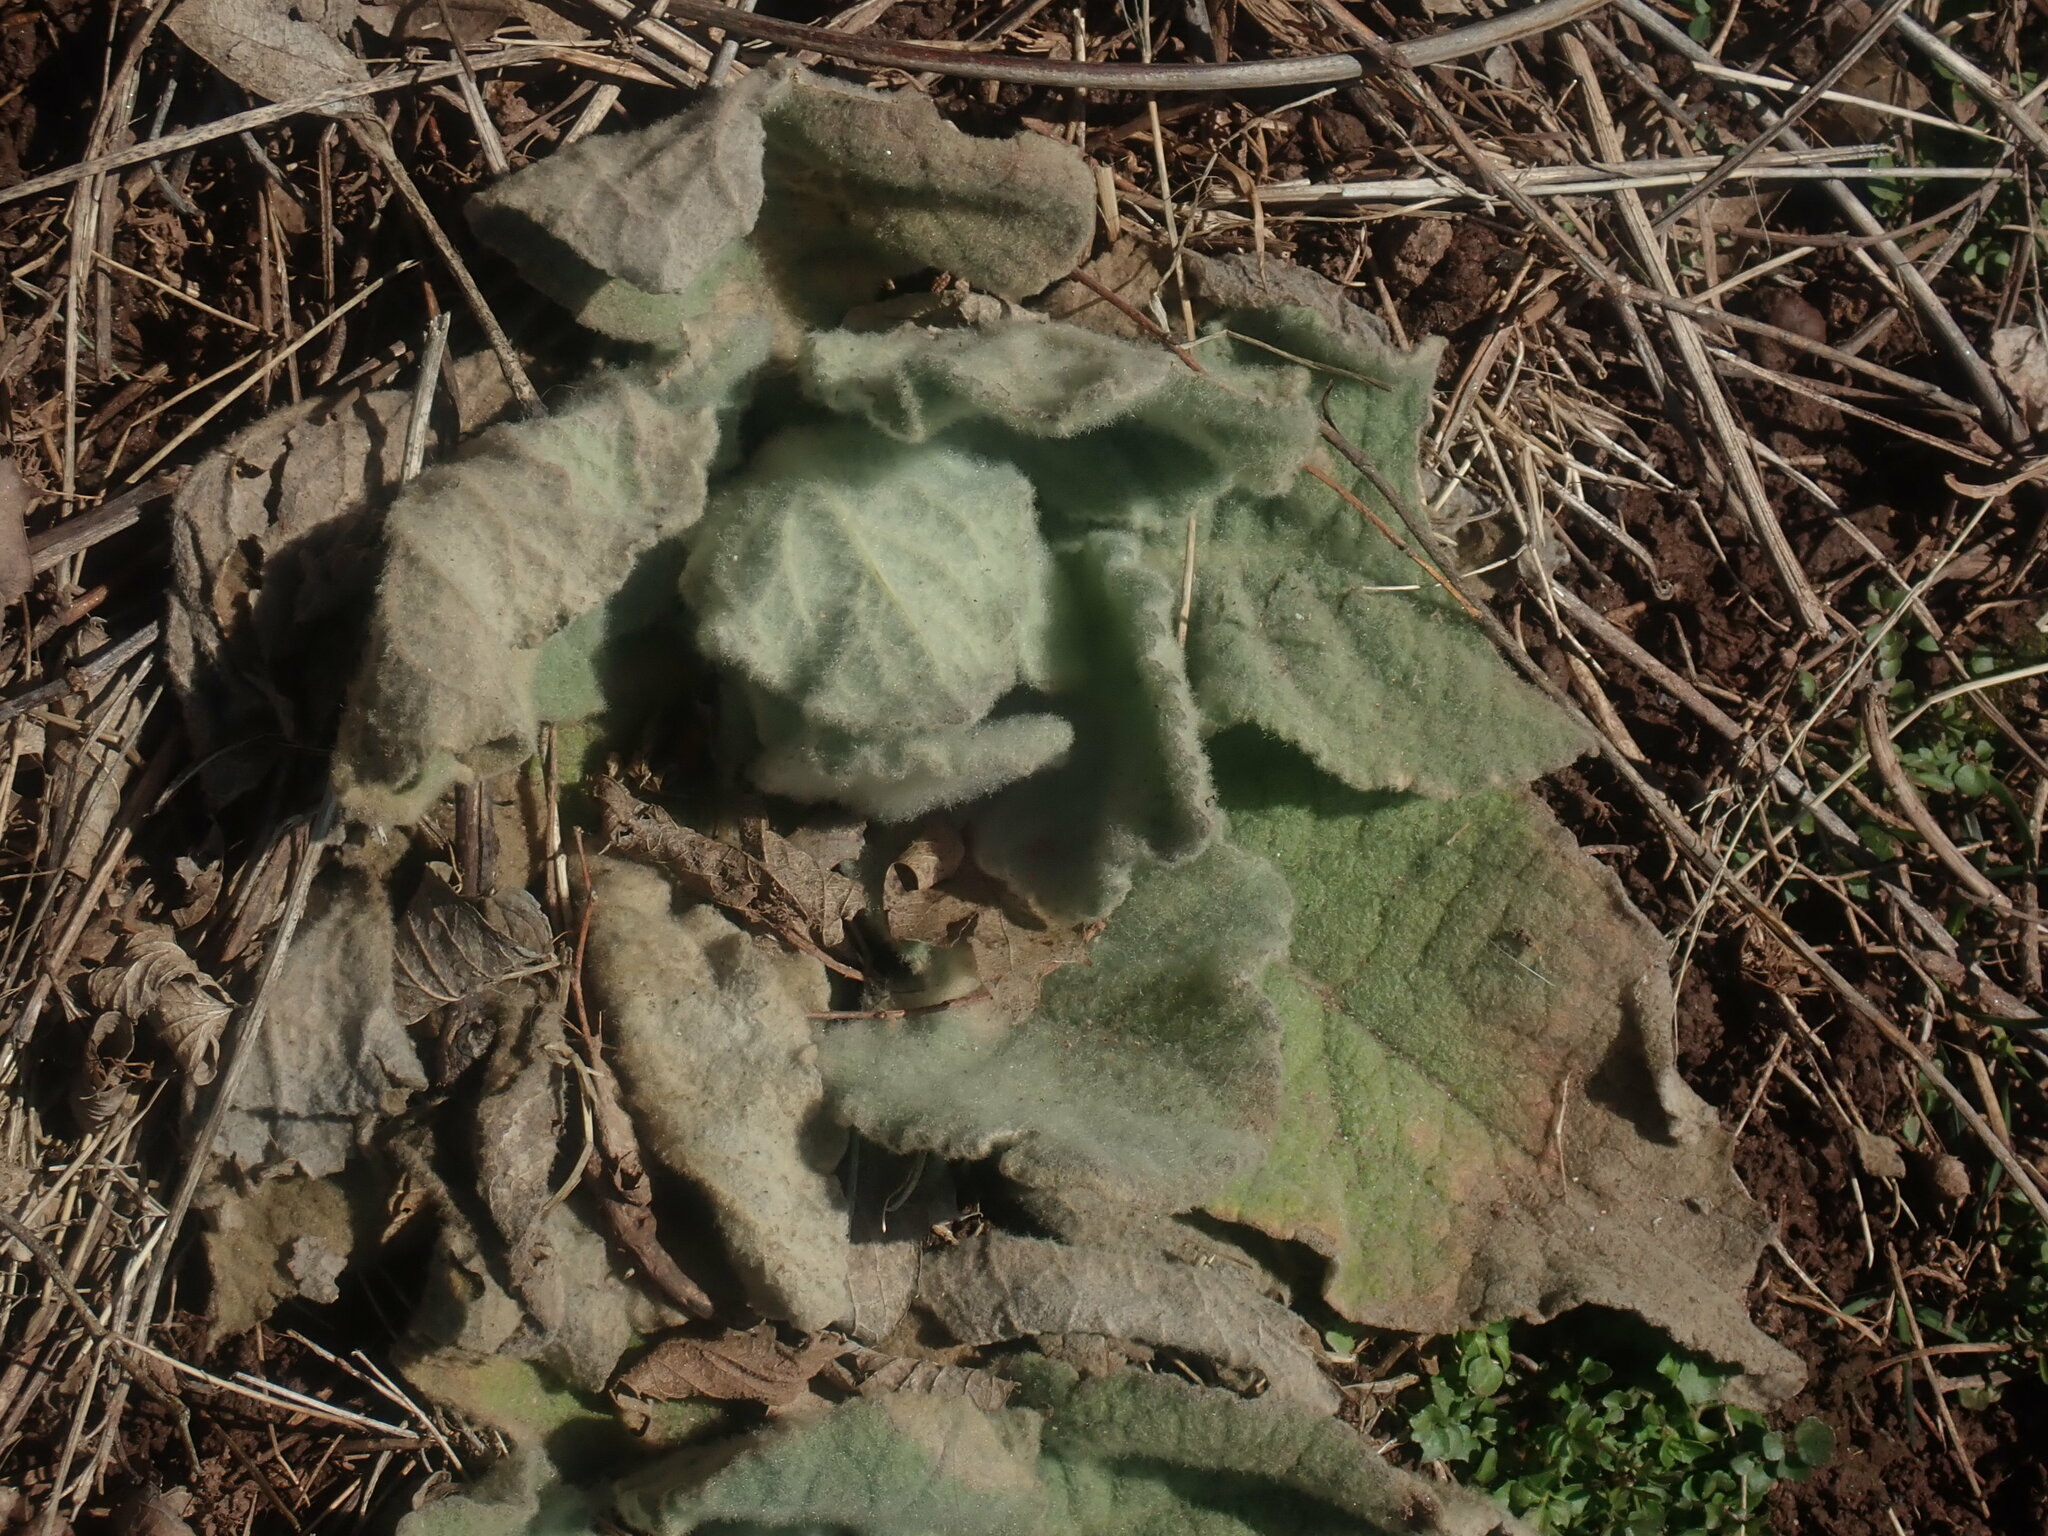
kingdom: Plantae
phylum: Tracheophyta
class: Magnoliopsida
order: Lamiales
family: Scrophulariaceae
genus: Verbascum
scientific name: Verbascum thapsus
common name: Common mullein
